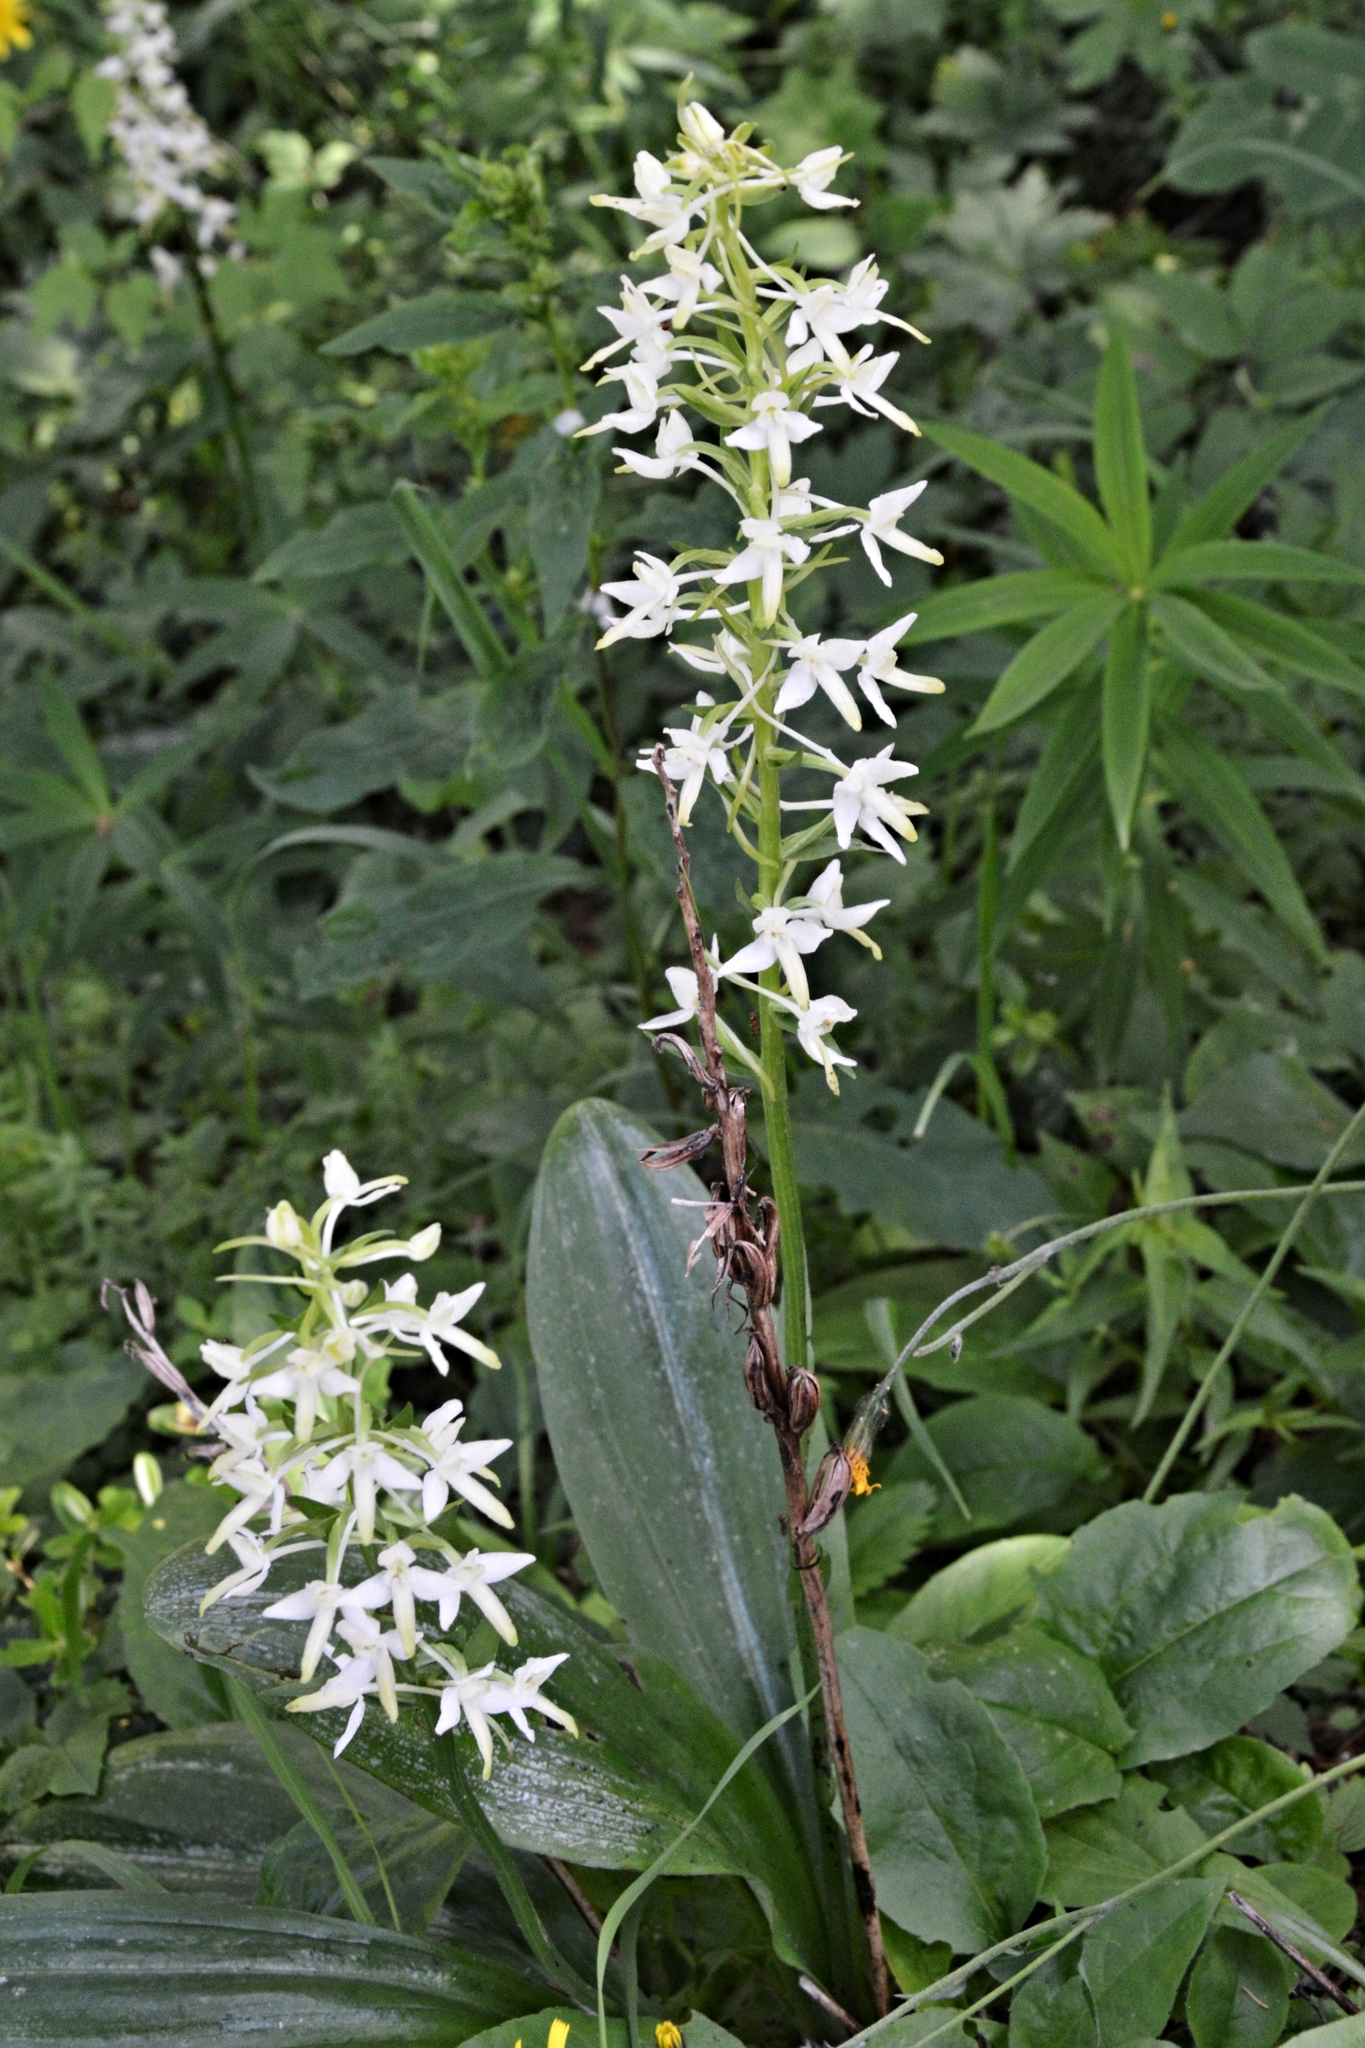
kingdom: Plantae
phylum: Tracheophyta
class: Liliopsida
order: Asparagales
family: Orchidaceae
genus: Platanthera
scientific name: Platanthera bifolia
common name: Lesser butterfly-orchid
